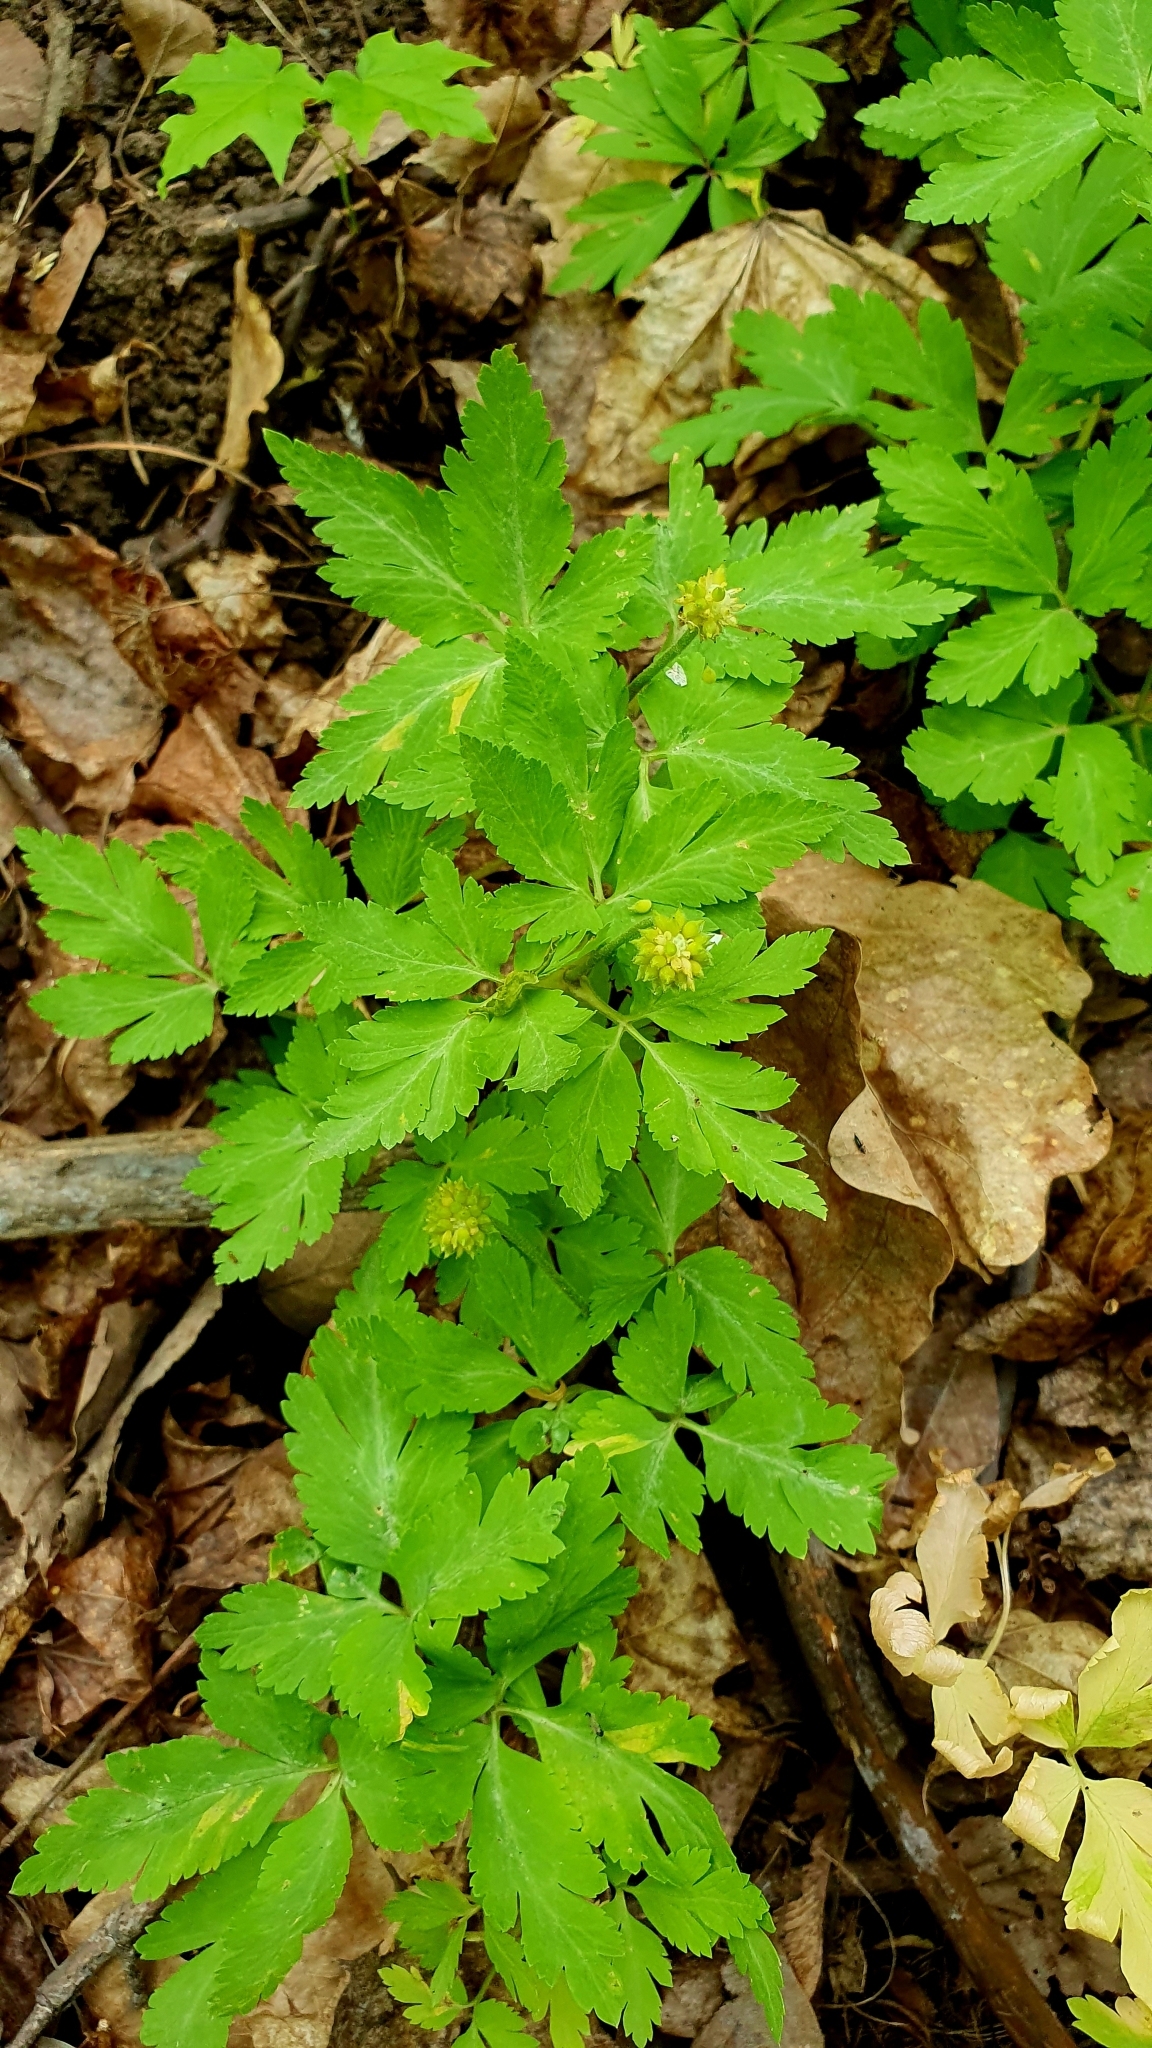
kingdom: Plantae
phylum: Tracheophyta
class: Magnoliopsida
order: Ranunculales
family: Ranunculaceae
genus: Anemone
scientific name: Anemone altaica
